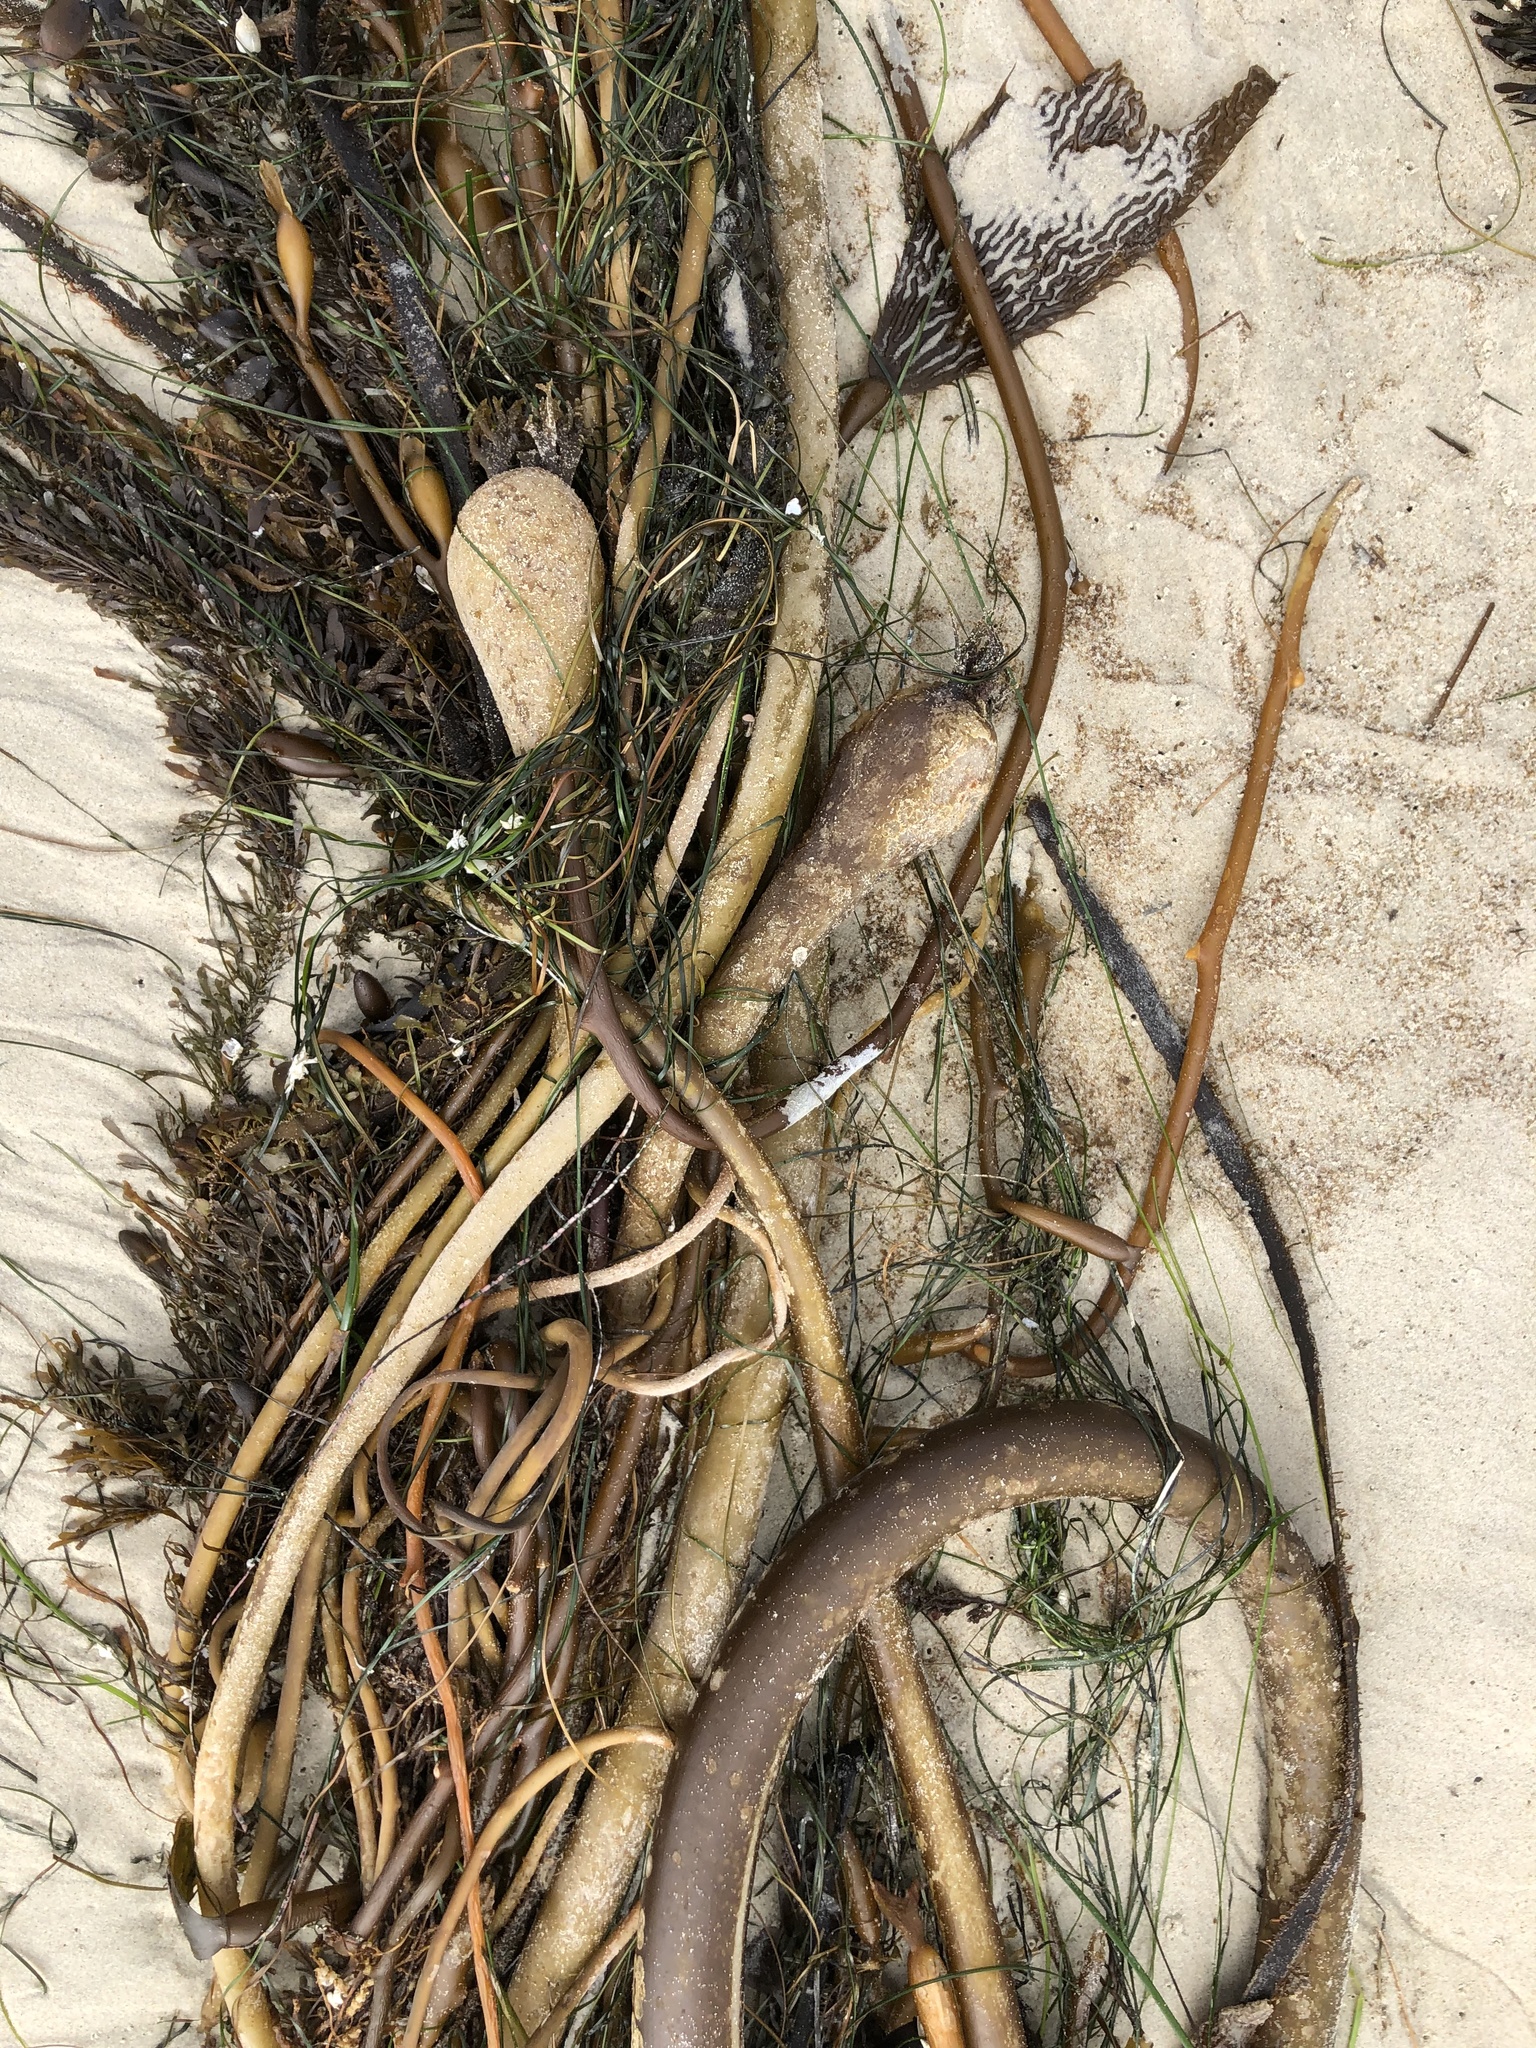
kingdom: Chromista
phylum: Ochrophyta
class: Phaeophyceae
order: Laminariales
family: Laminariaceae
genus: Nereocystis
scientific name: Nereocystis luetkeana
